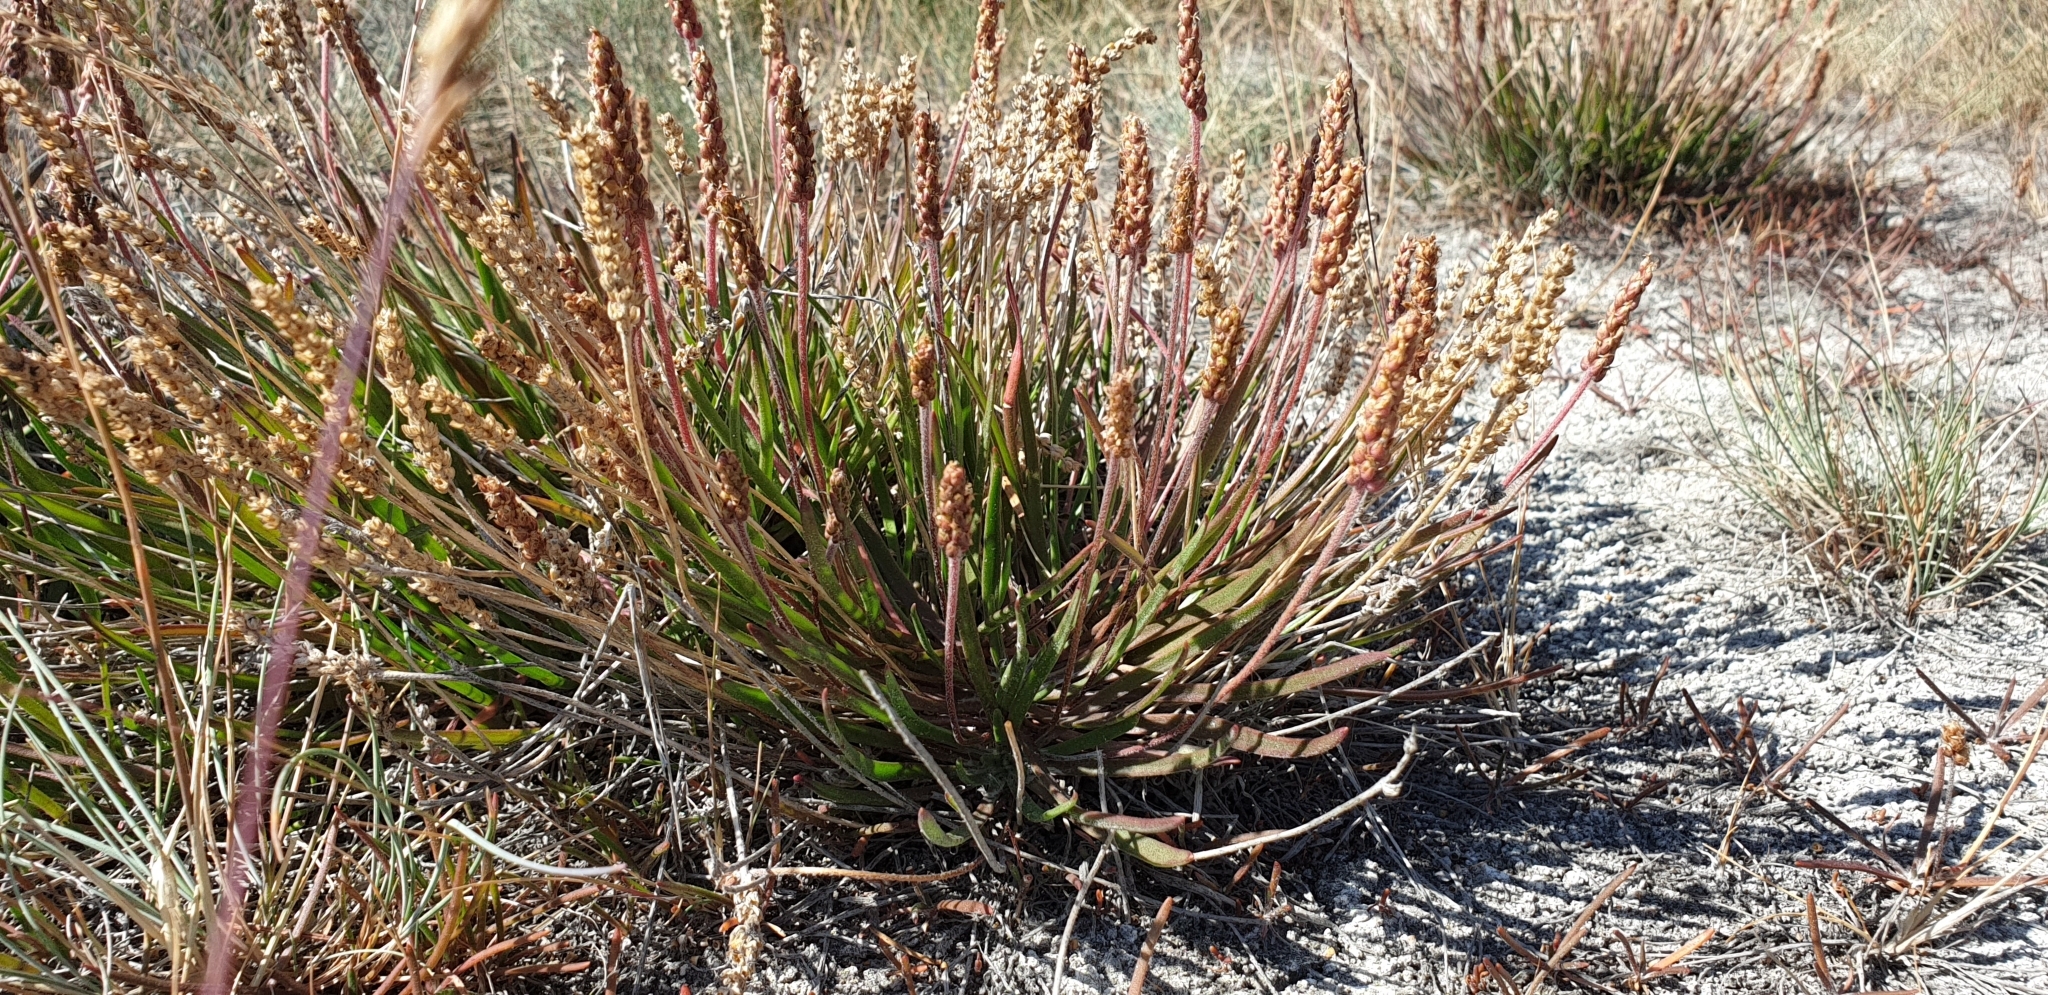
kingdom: Plantae
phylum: Tracheophyta
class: Magnoliopsida
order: Lamiales
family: Plantaginaceae
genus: Plantago
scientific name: Plantago maritima
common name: Sea plantain
